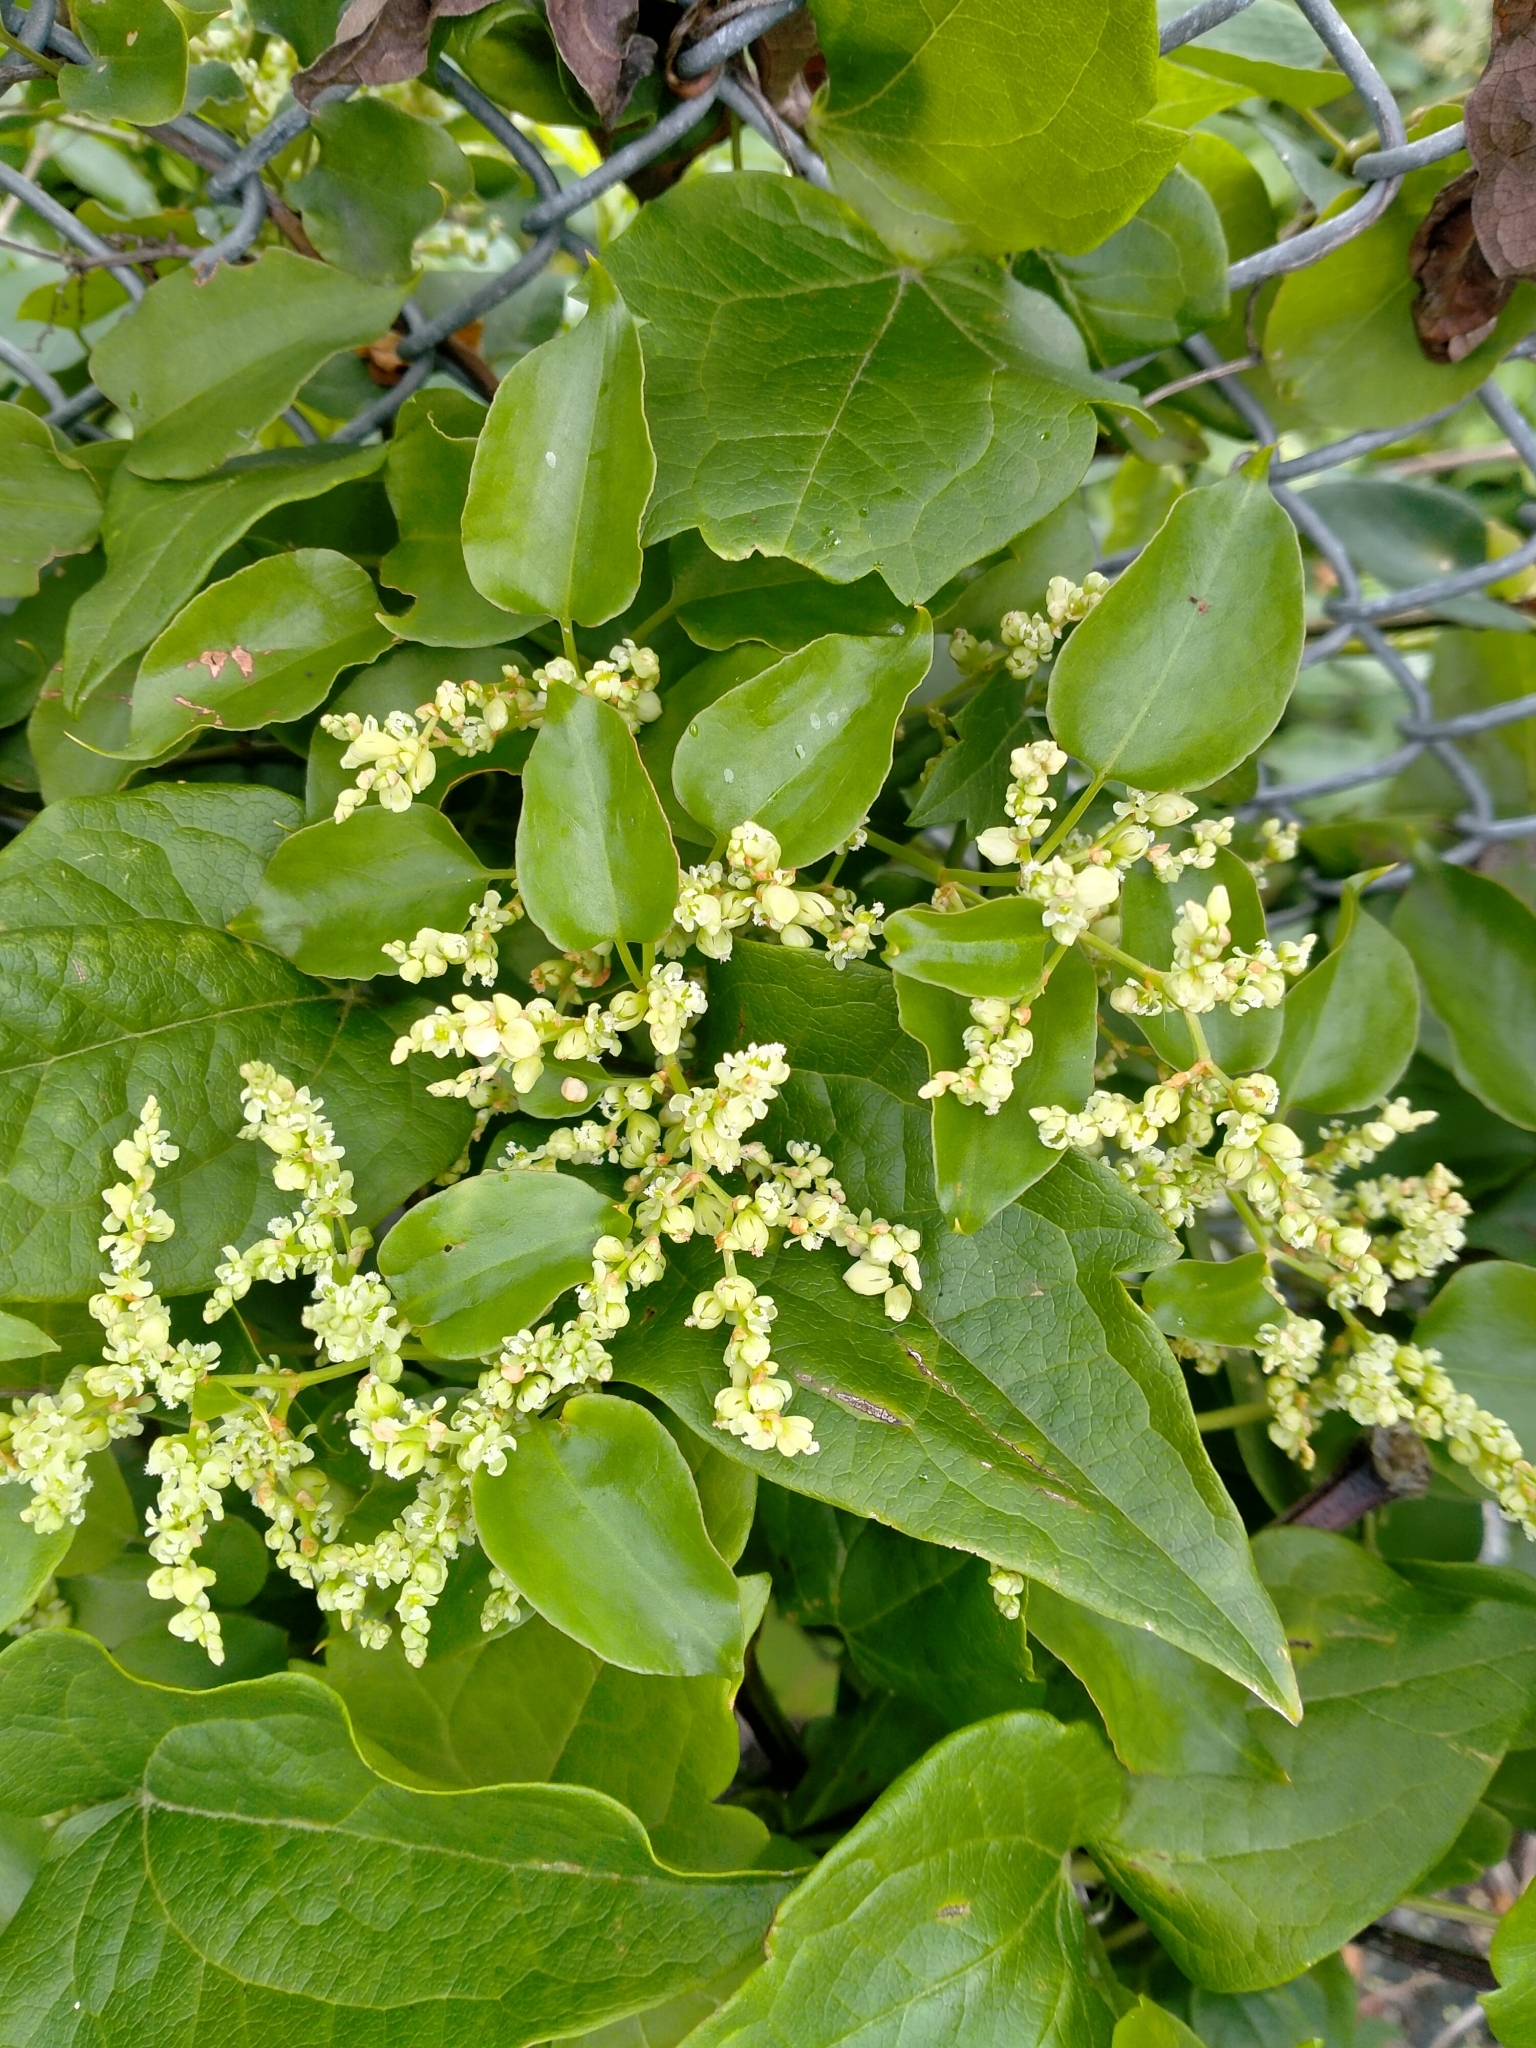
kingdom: Plantae
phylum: Tracheophyta
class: Magnoliopsida
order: Caryophyllales
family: Polygonaceae
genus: Muehlenbeckia
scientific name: Muehlenbeckia australis
